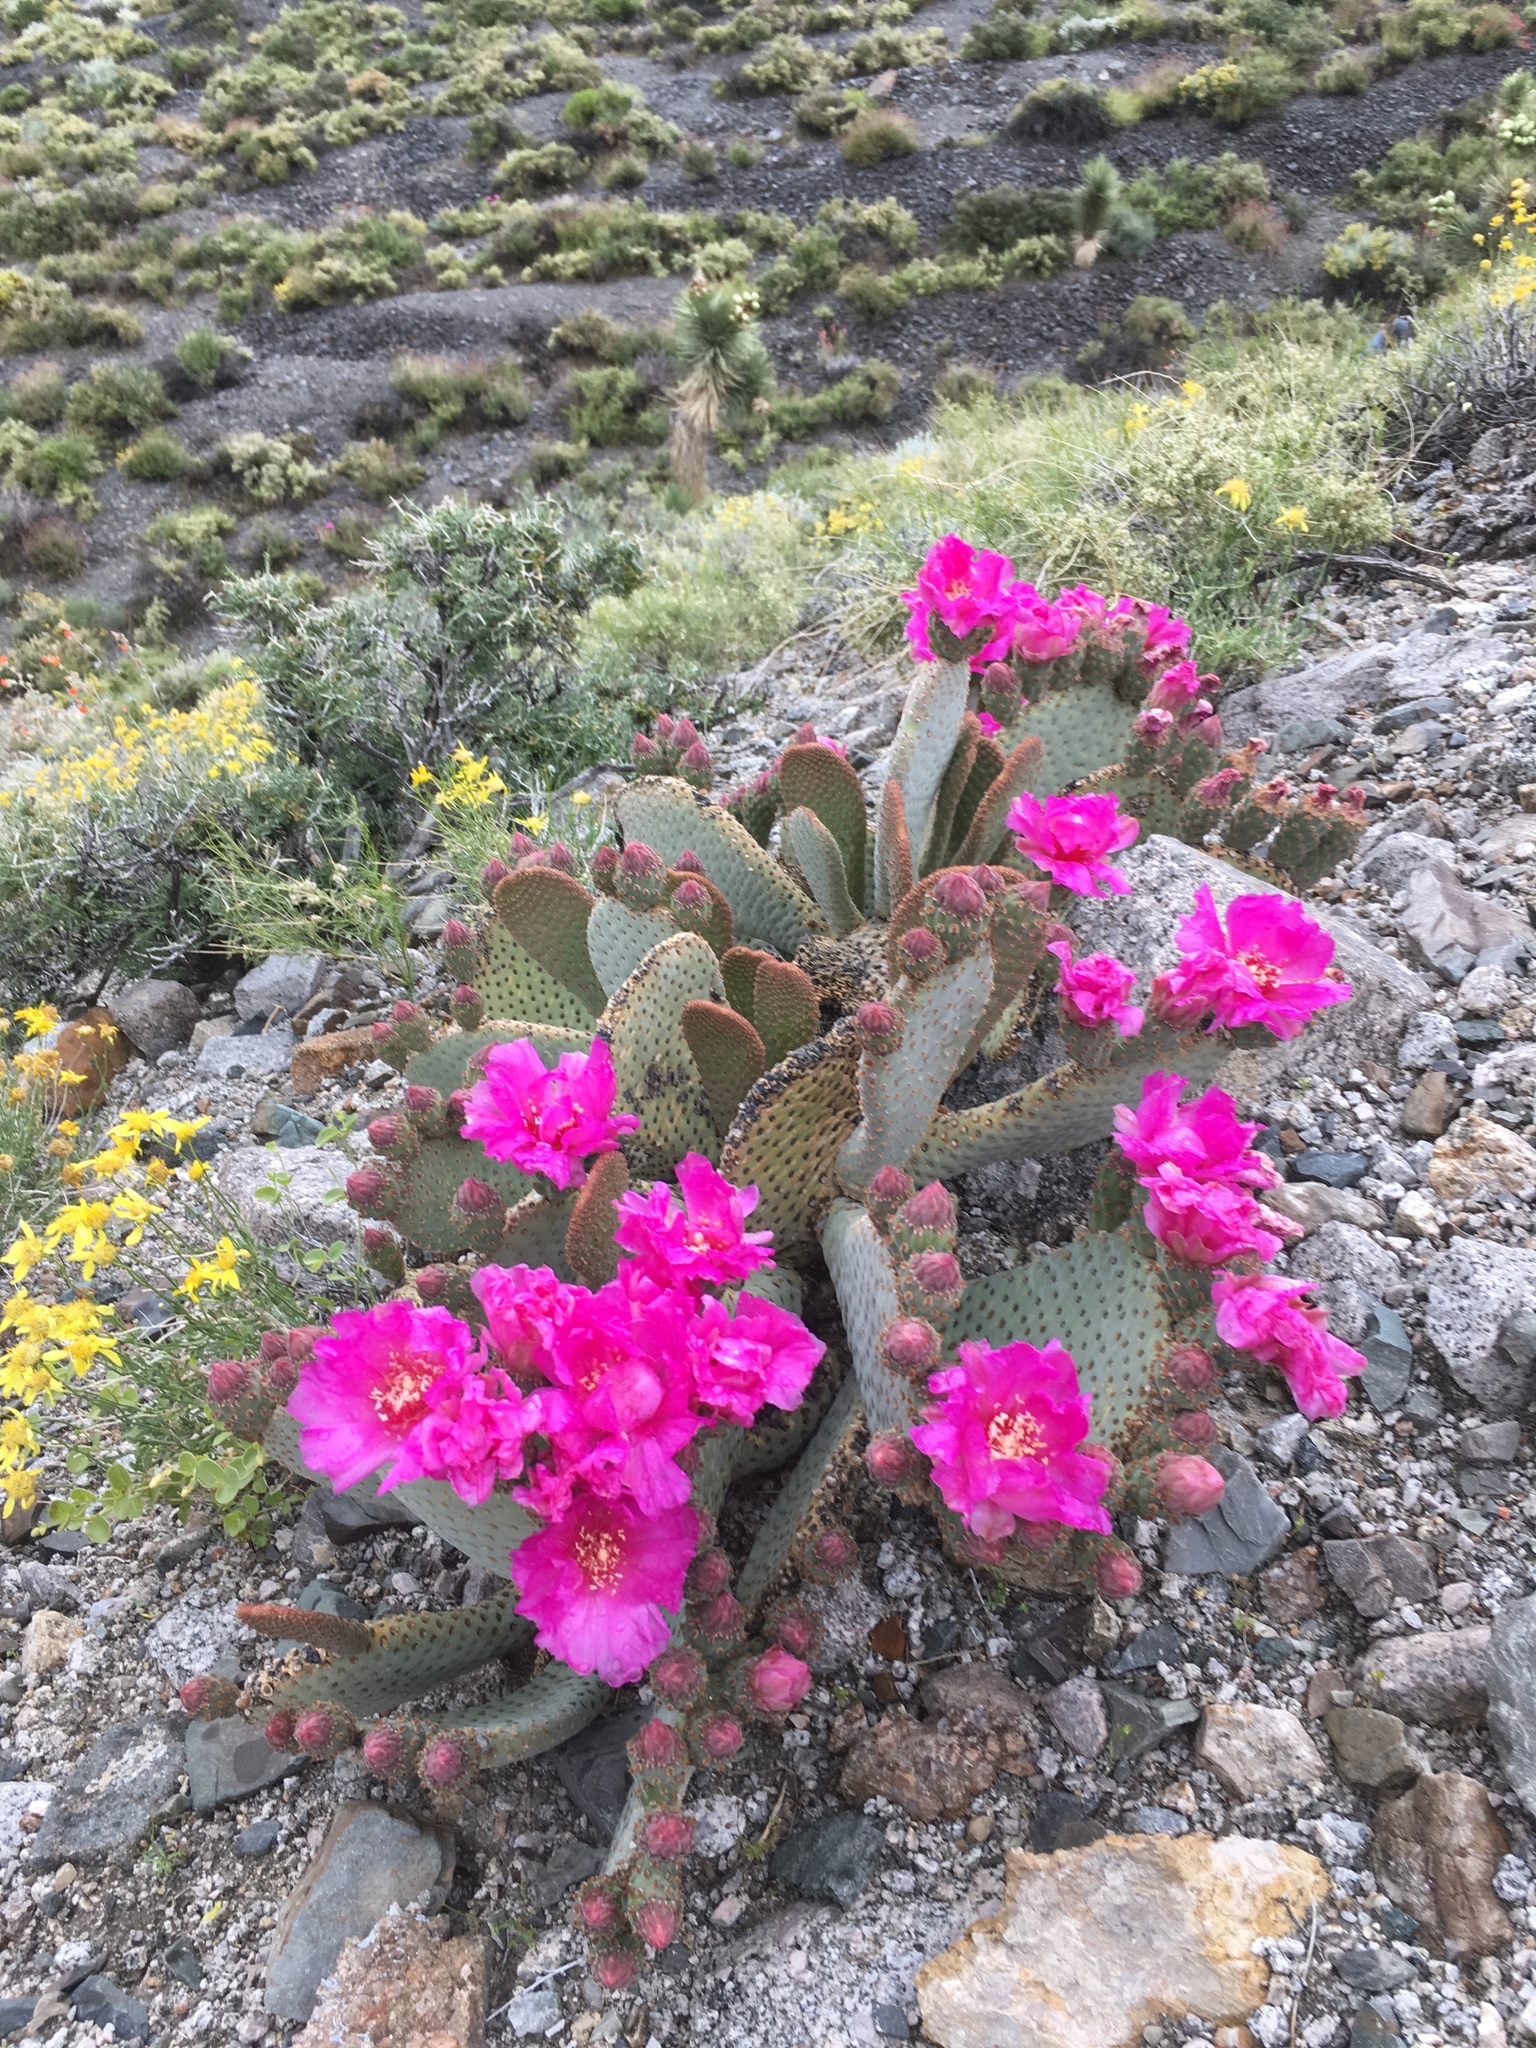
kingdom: Plantae
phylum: Tracheophyta
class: Magnoliopsida
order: Caryophyllales
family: Cactaceae
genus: Opuntia
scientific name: Opuntia basilaris
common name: Beavertail prickly-pear
